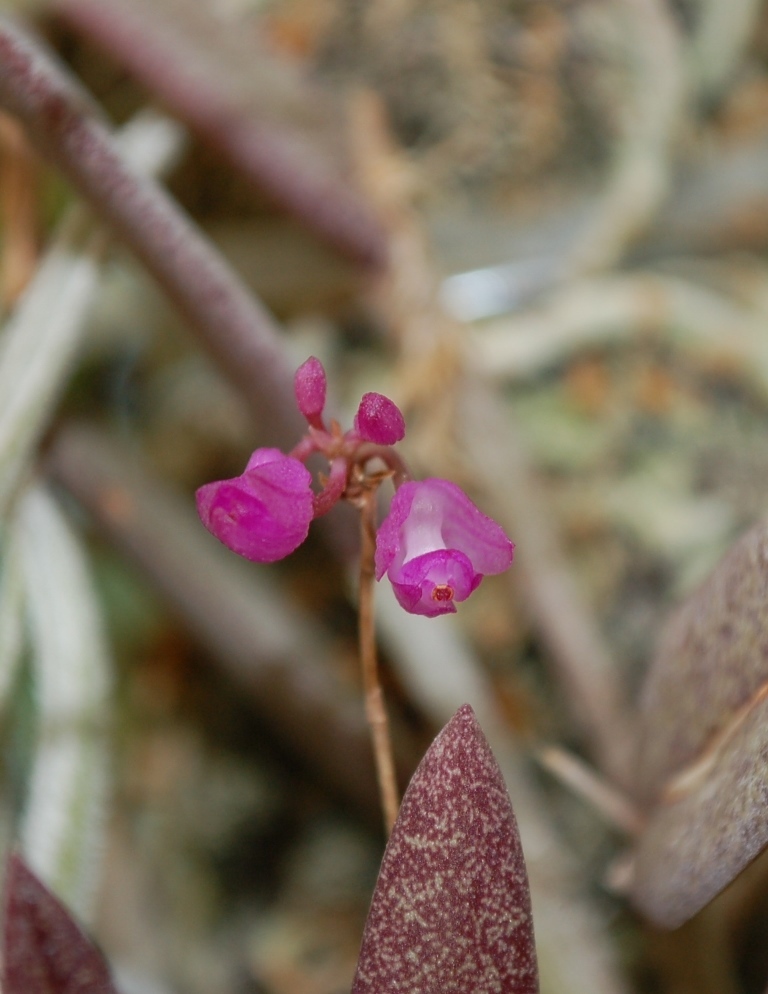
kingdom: Plantae
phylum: Tracheophyta
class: Liliopsida
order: Asparagales
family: Orchidaceae
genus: Domingoa
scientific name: Domingoa purpurea
